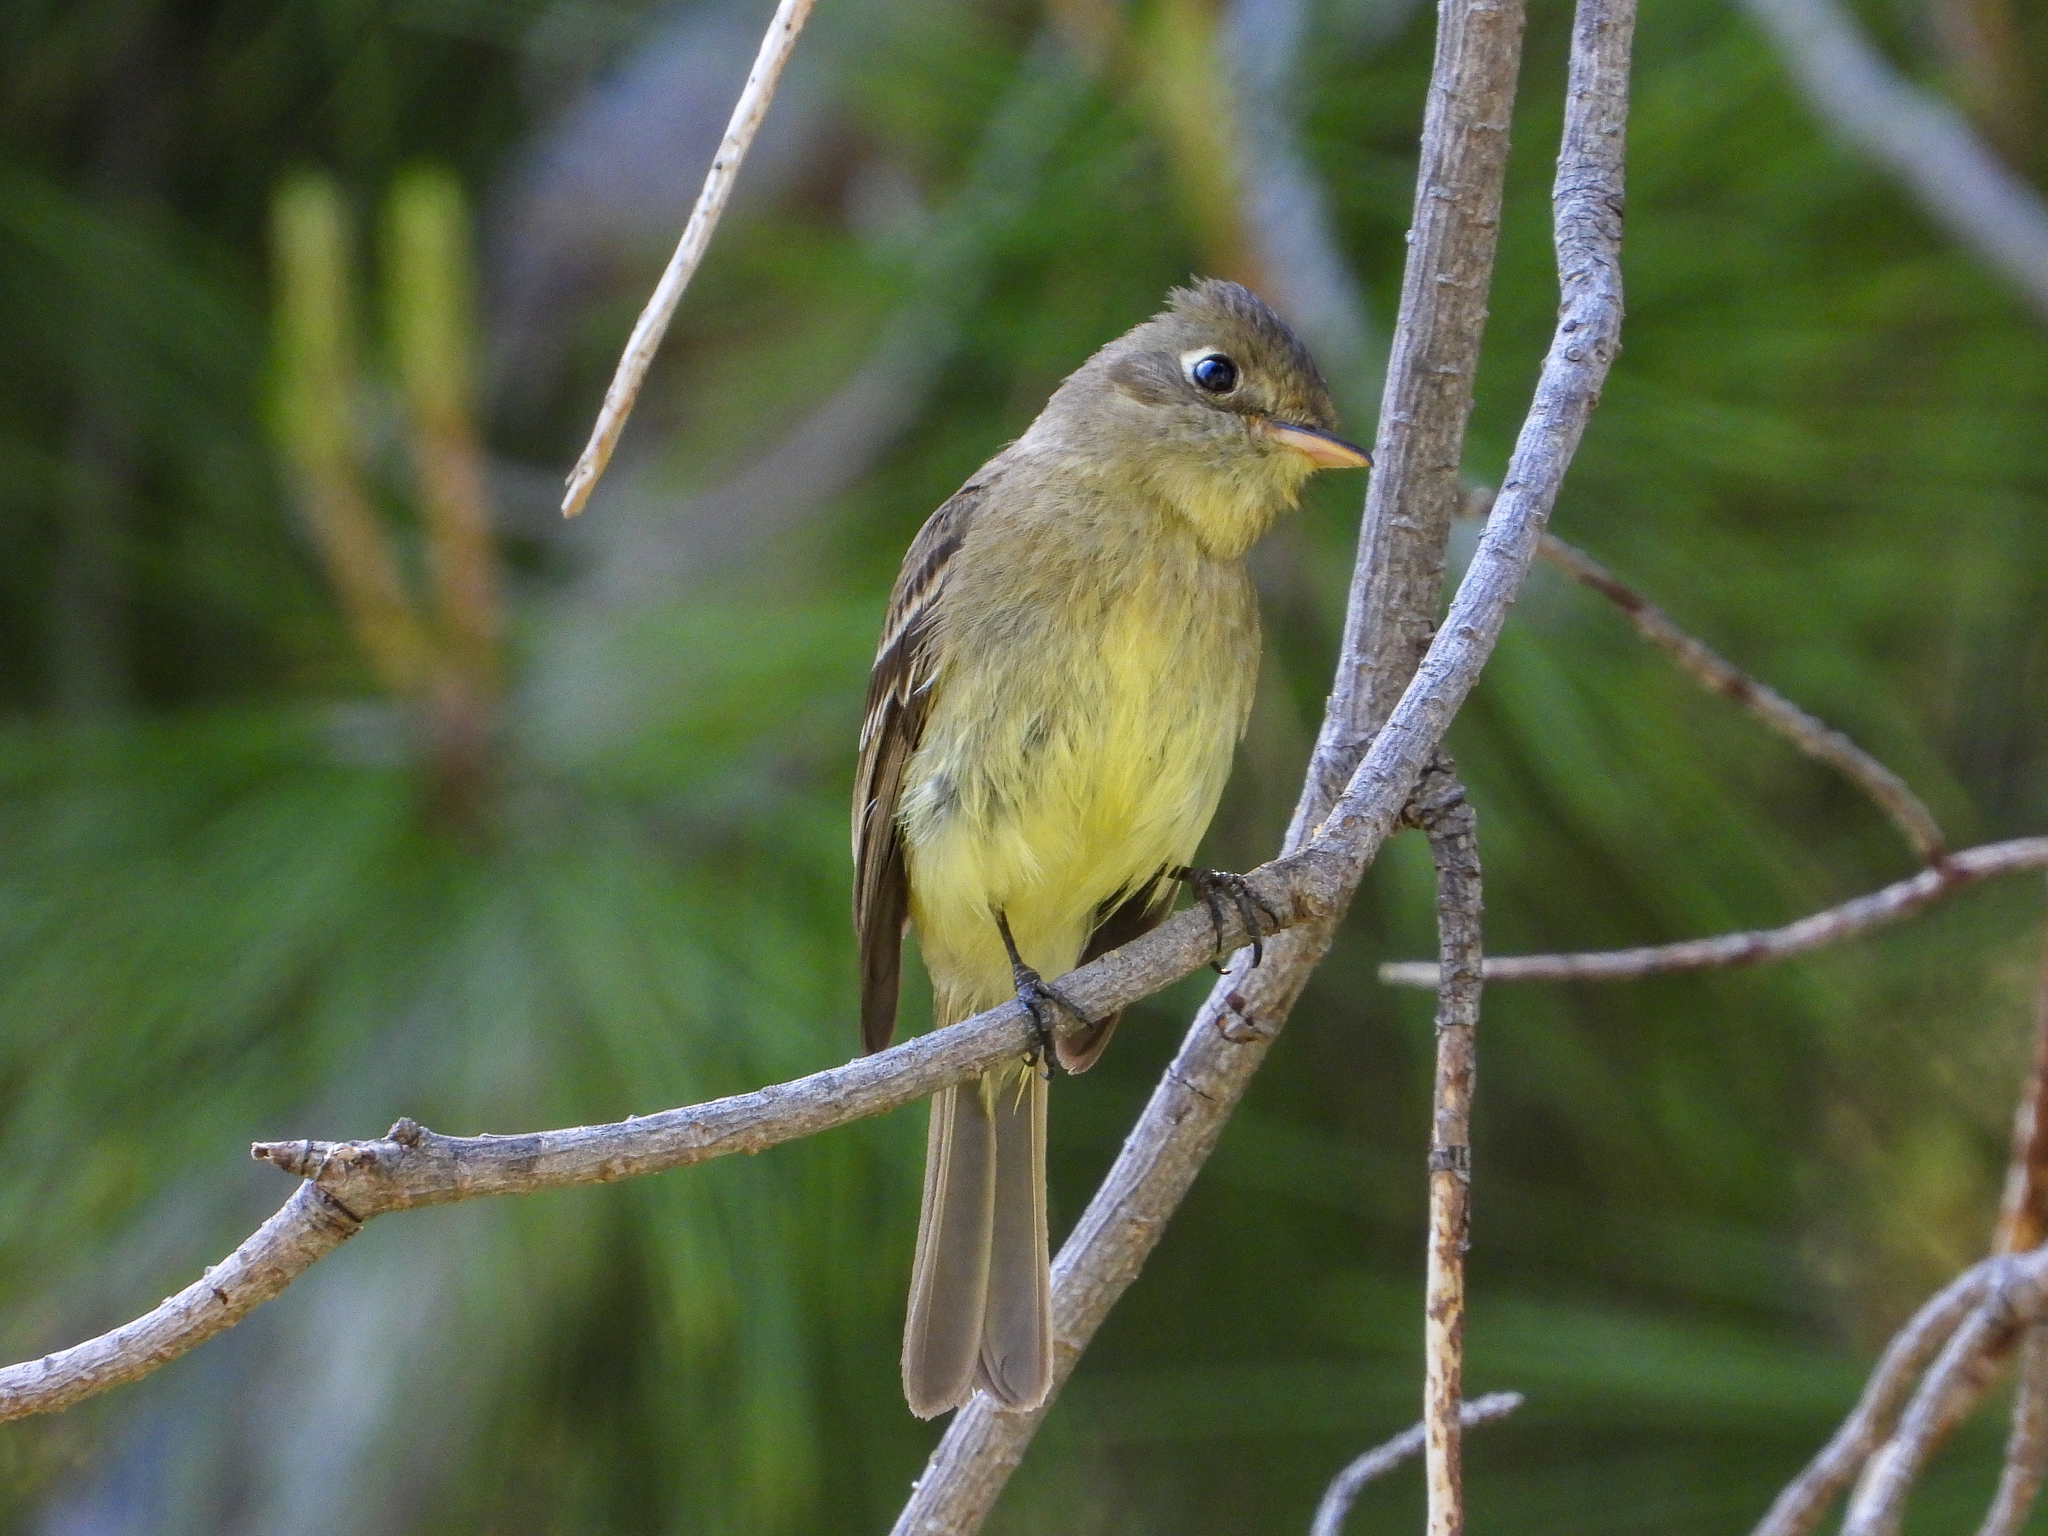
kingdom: Animalia
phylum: Chordata
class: Aves
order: Passeriformes
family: Tyrannidae
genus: Empidonax
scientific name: Empidonax difficilis
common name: Pacific-slope flycatcher
